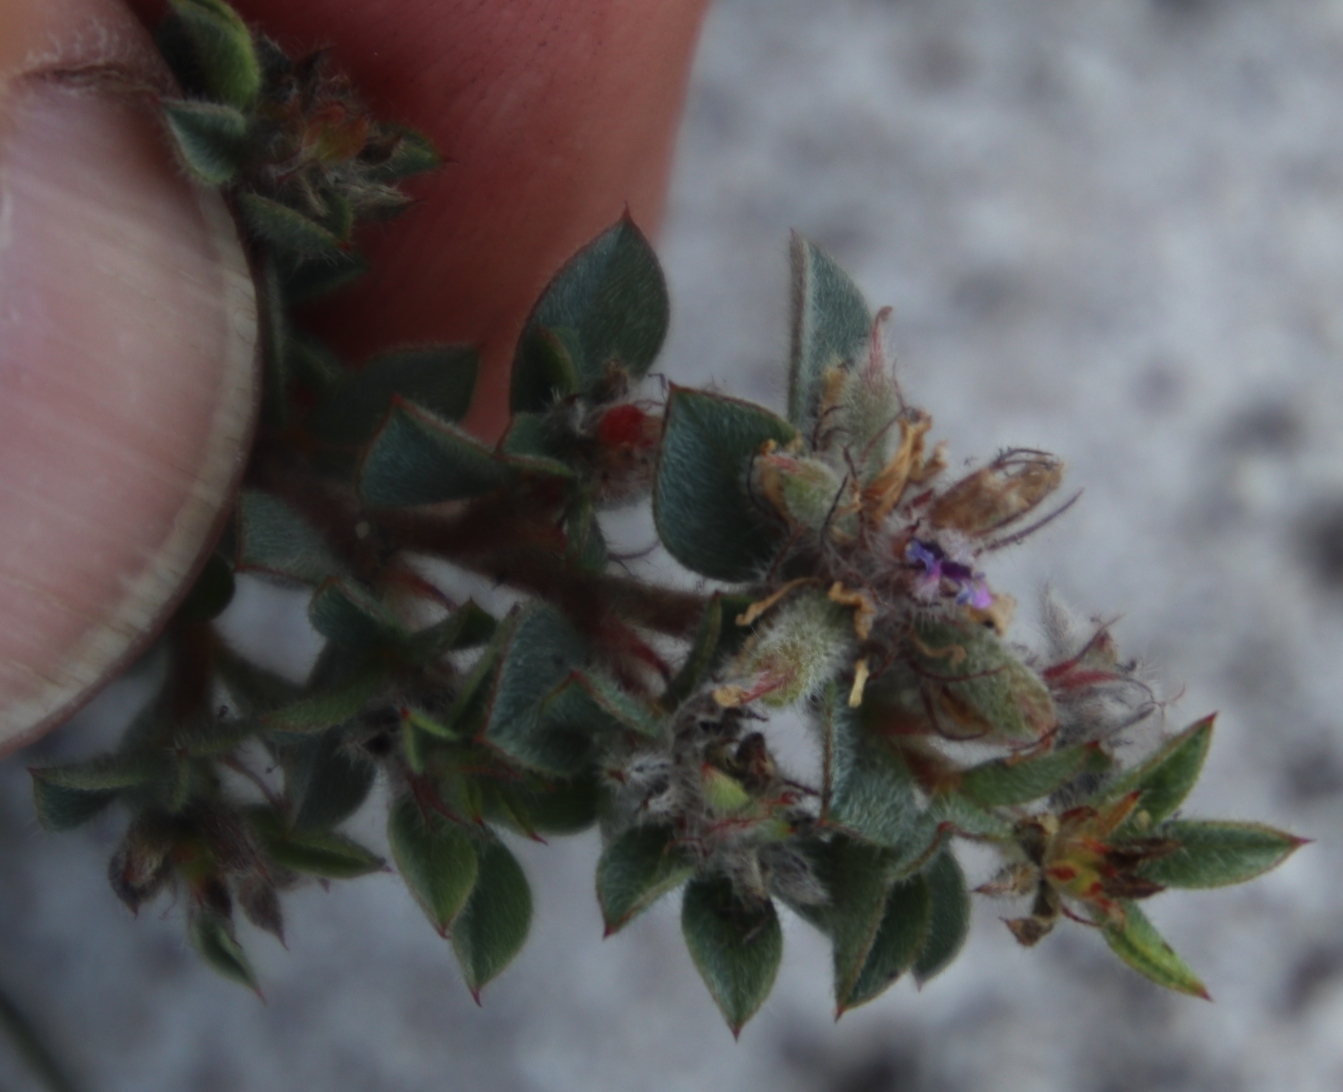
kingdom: Plantae
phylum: Tracheophyta
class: Magnoliopsida
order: Fabales
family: Fabaceae
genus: Indigofera
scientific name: Indigofera glomerata
